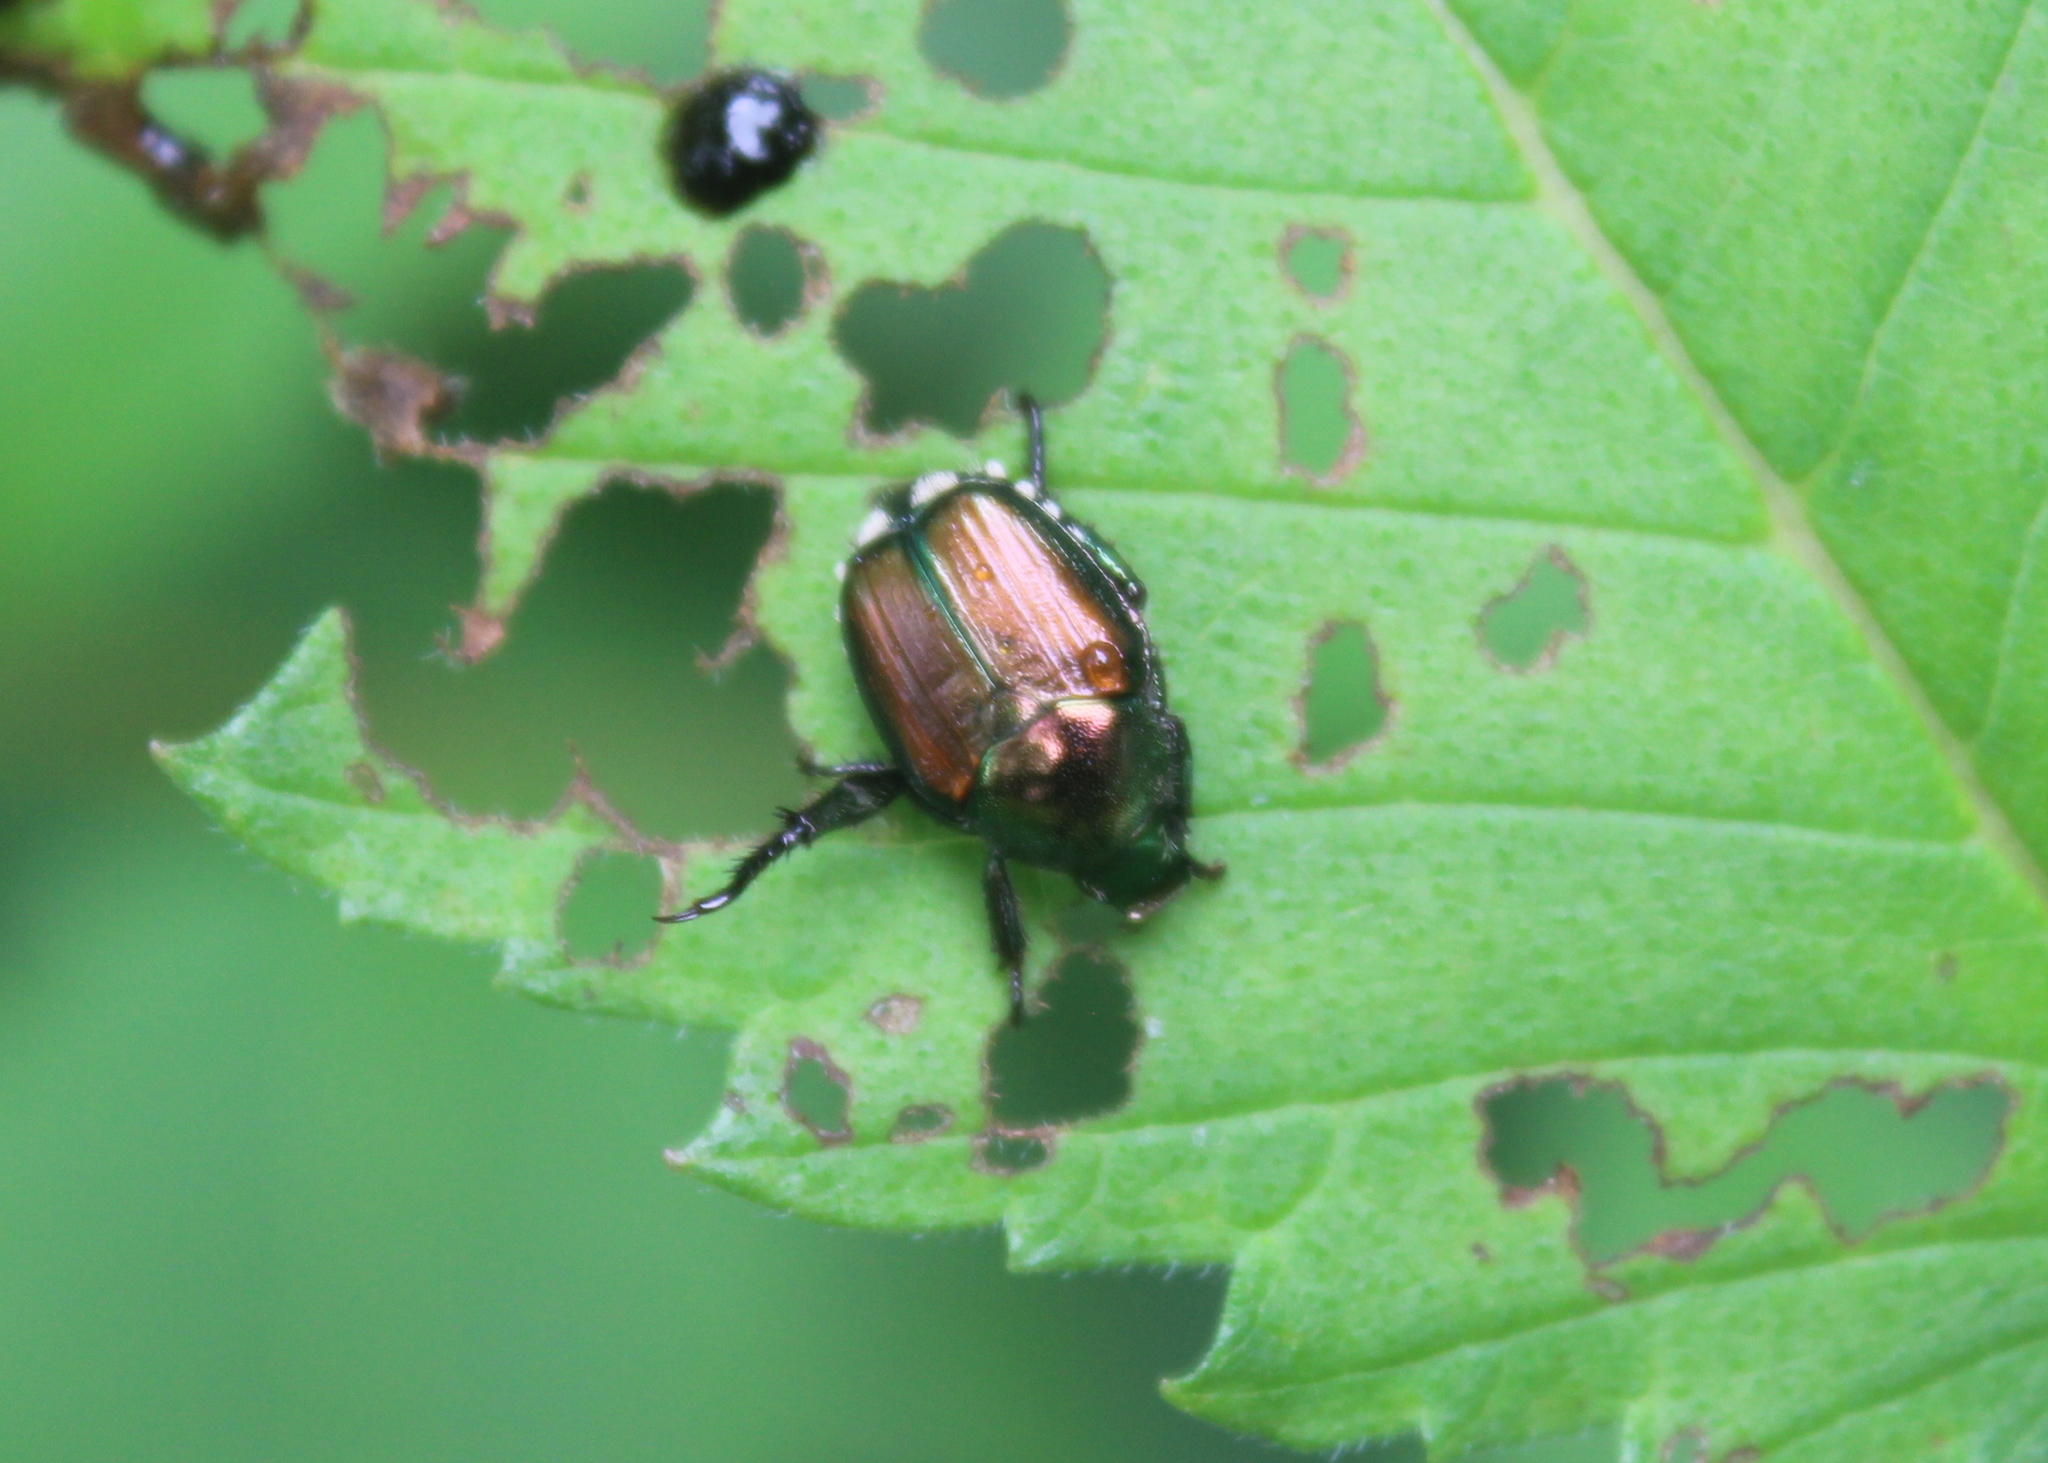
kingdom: Animalia
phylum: Arthropoda
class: Insecta
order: Coleoptera
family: Scarabaeidae
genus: Popillia
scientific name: Popillia japonica
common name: Japanese beetle
